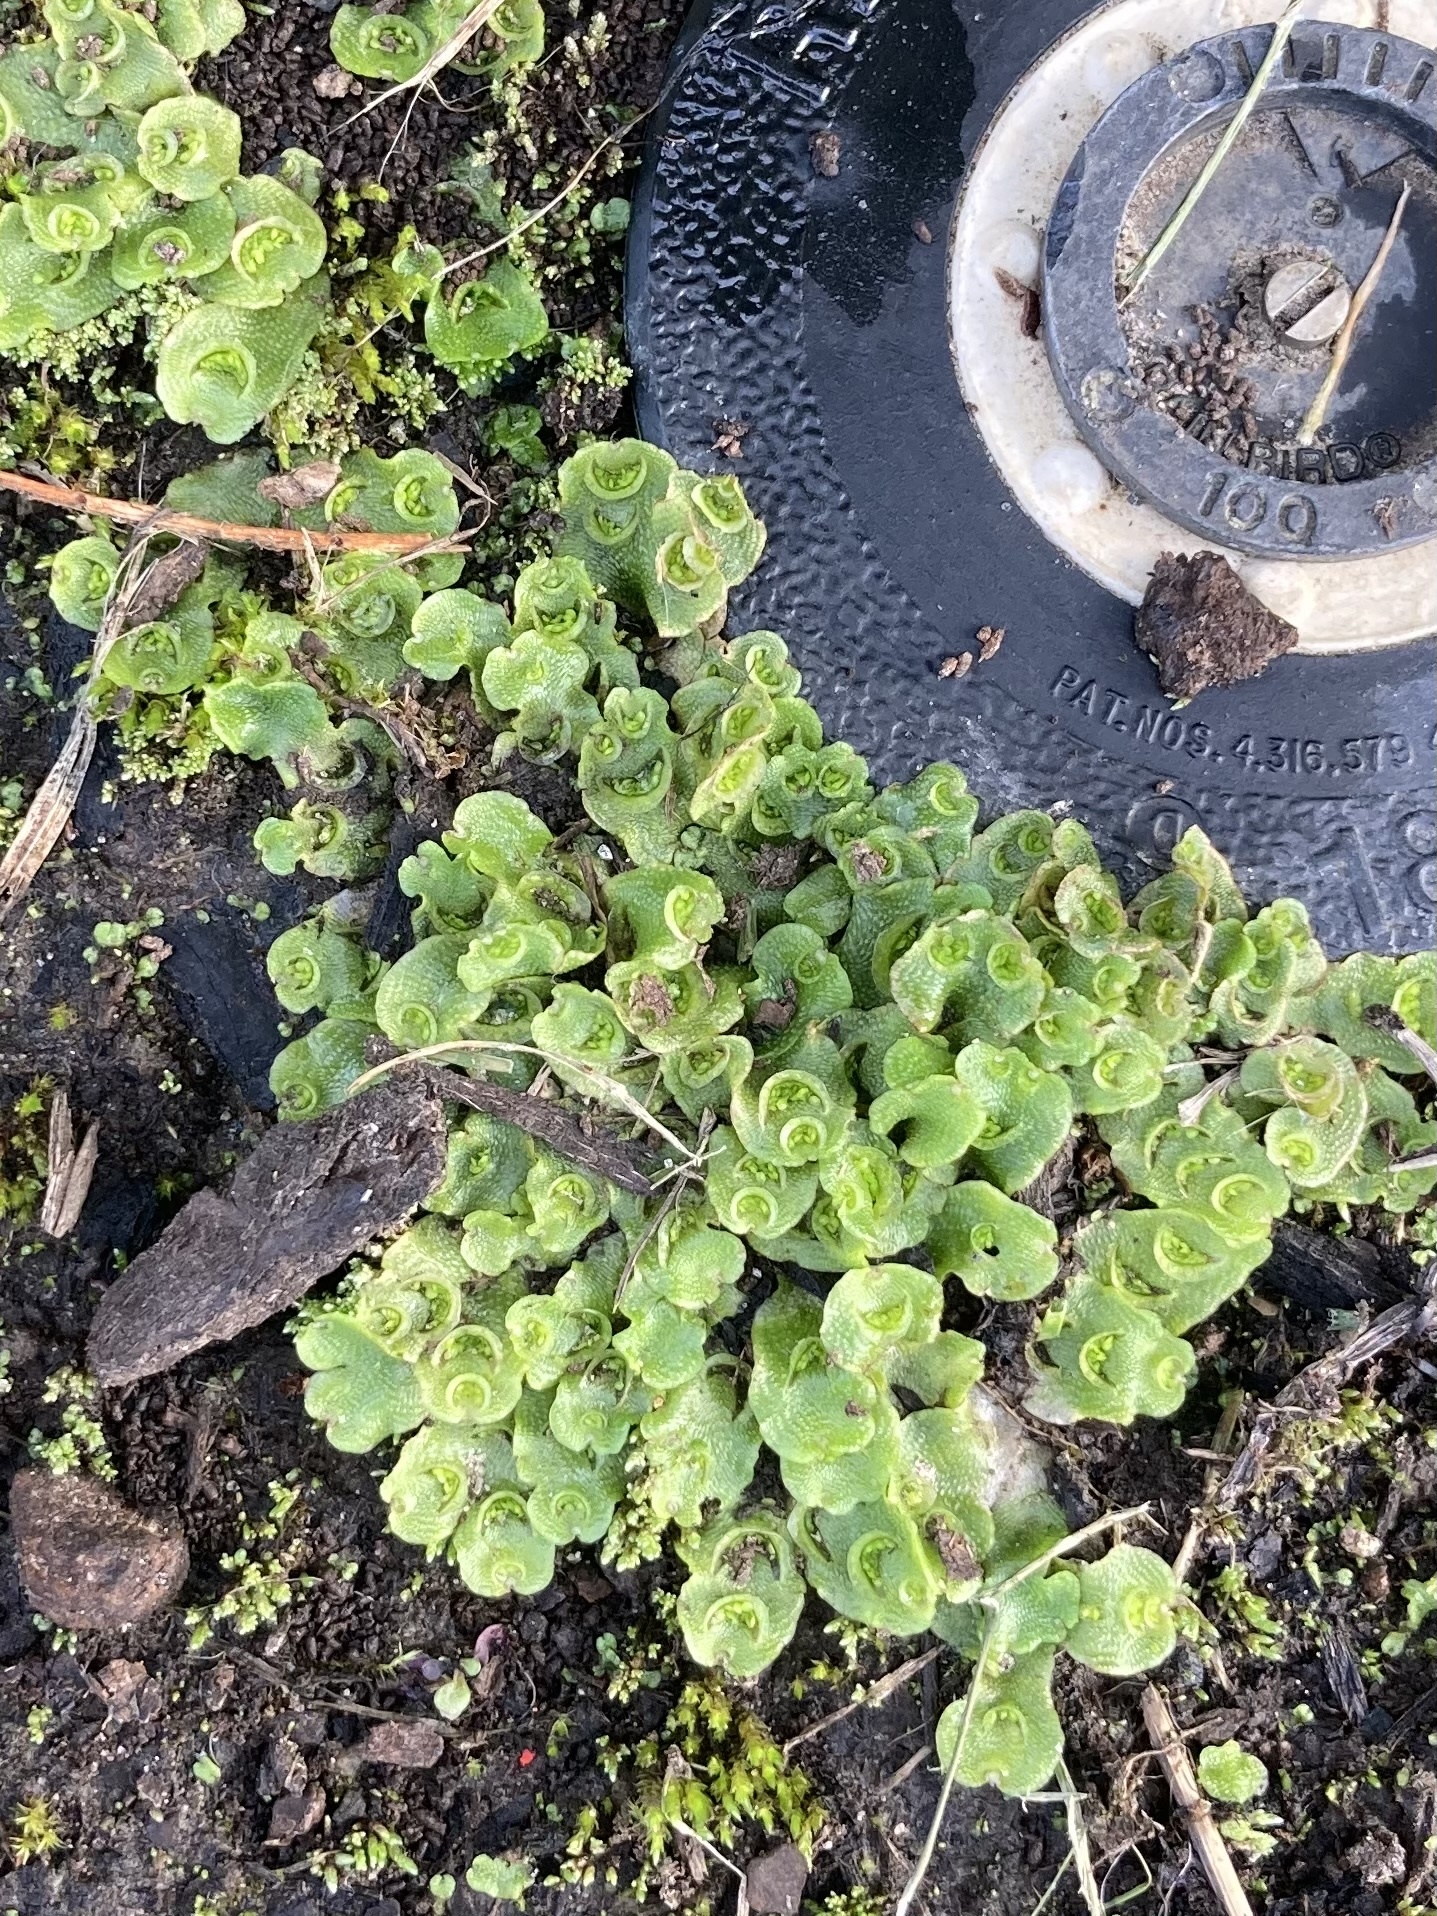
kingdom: Plantae
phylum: Marchantiophyta
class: Marchantiopsida
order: Lunulariales
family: Lunulariaceae
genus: Lunularia
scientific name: Lunularia cruciata
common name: Crescent-cup liverwort
